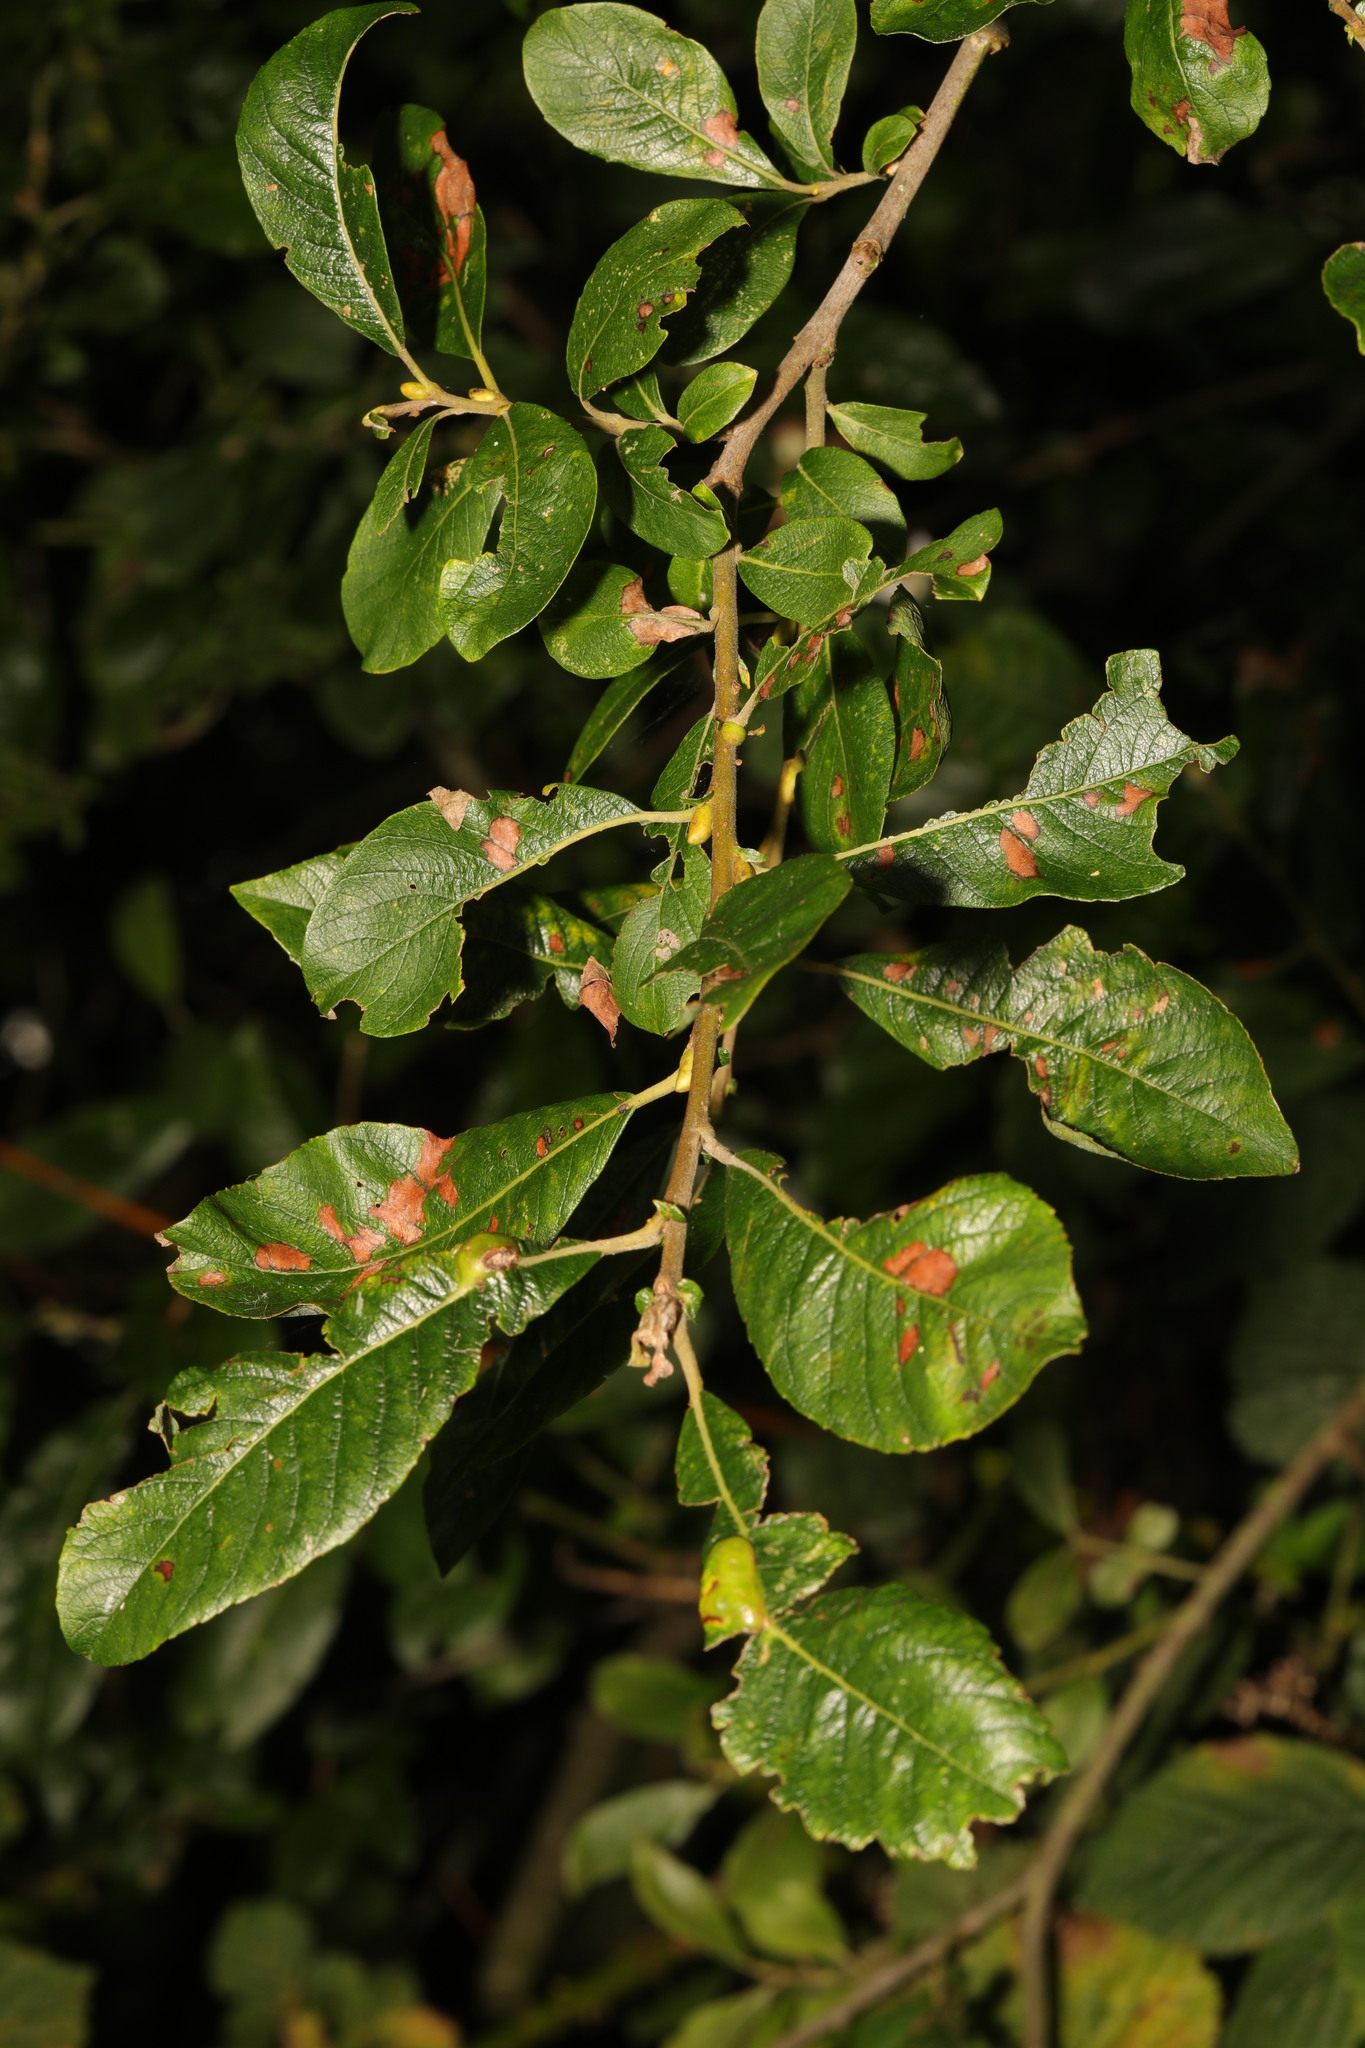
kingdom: Plantae
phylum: Tracheophyta
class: Magnoliopsida
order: Malpighiales
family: Salicaceae
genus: Salix
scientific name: Salix cinerea
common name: Common sallow
